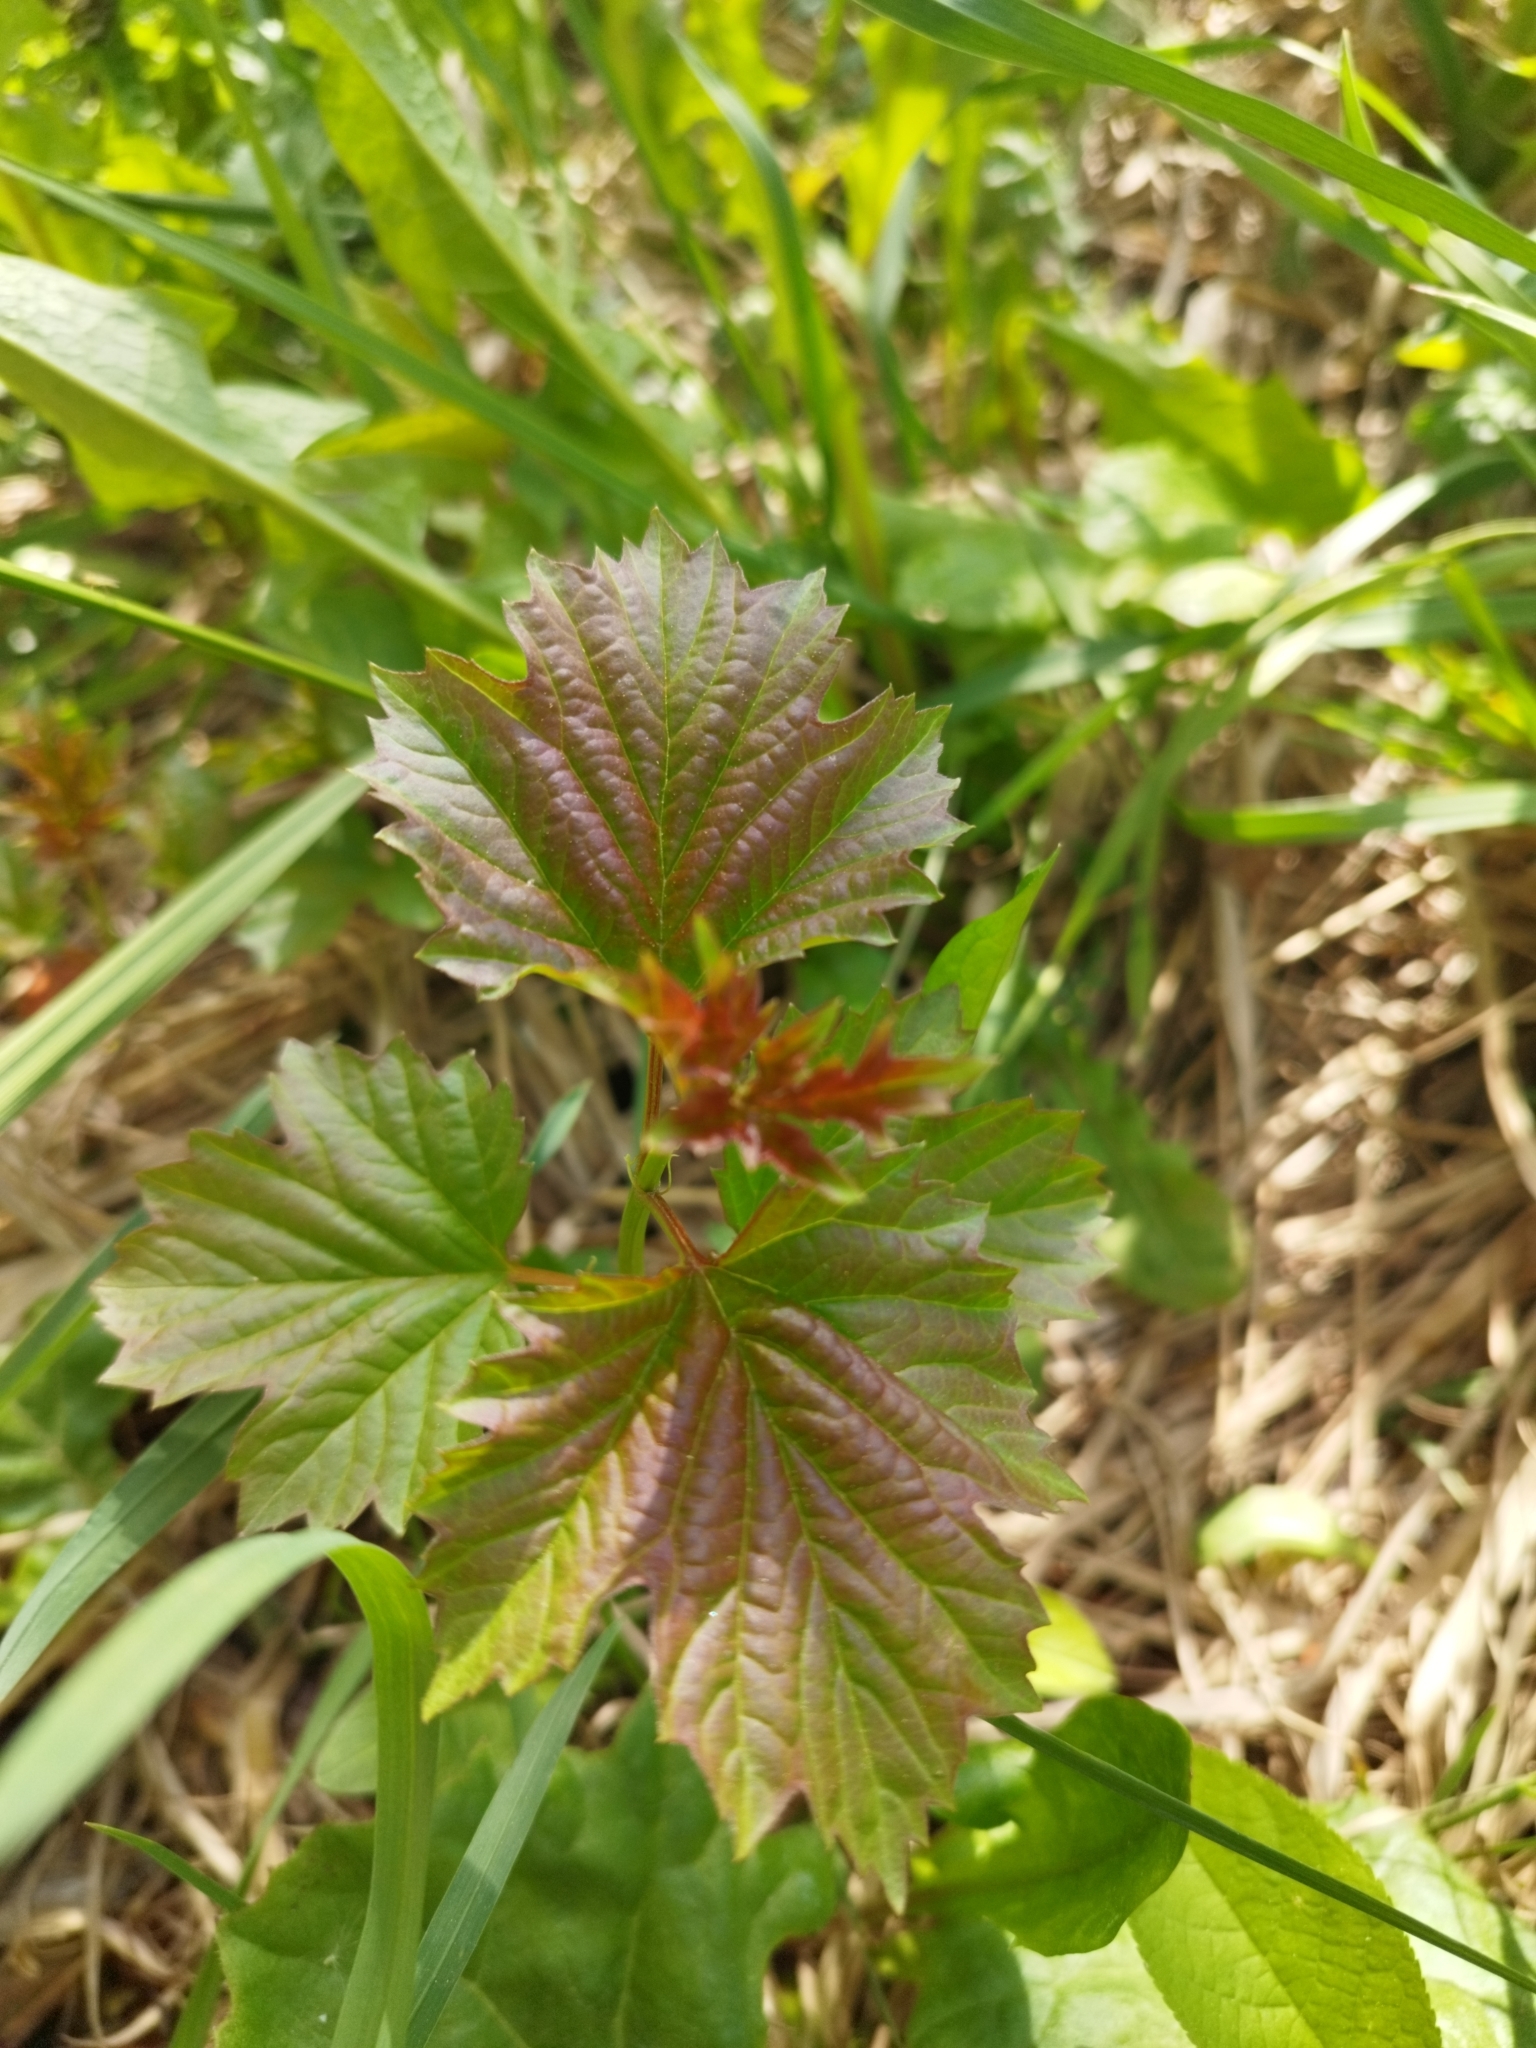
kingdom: Plantae
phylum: Tracheophyta
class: Magnoliopsida
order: Dipsacales
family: Viburnaceae
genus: Viburnum
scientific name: Viburnum opulus
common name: Guelder-rose
